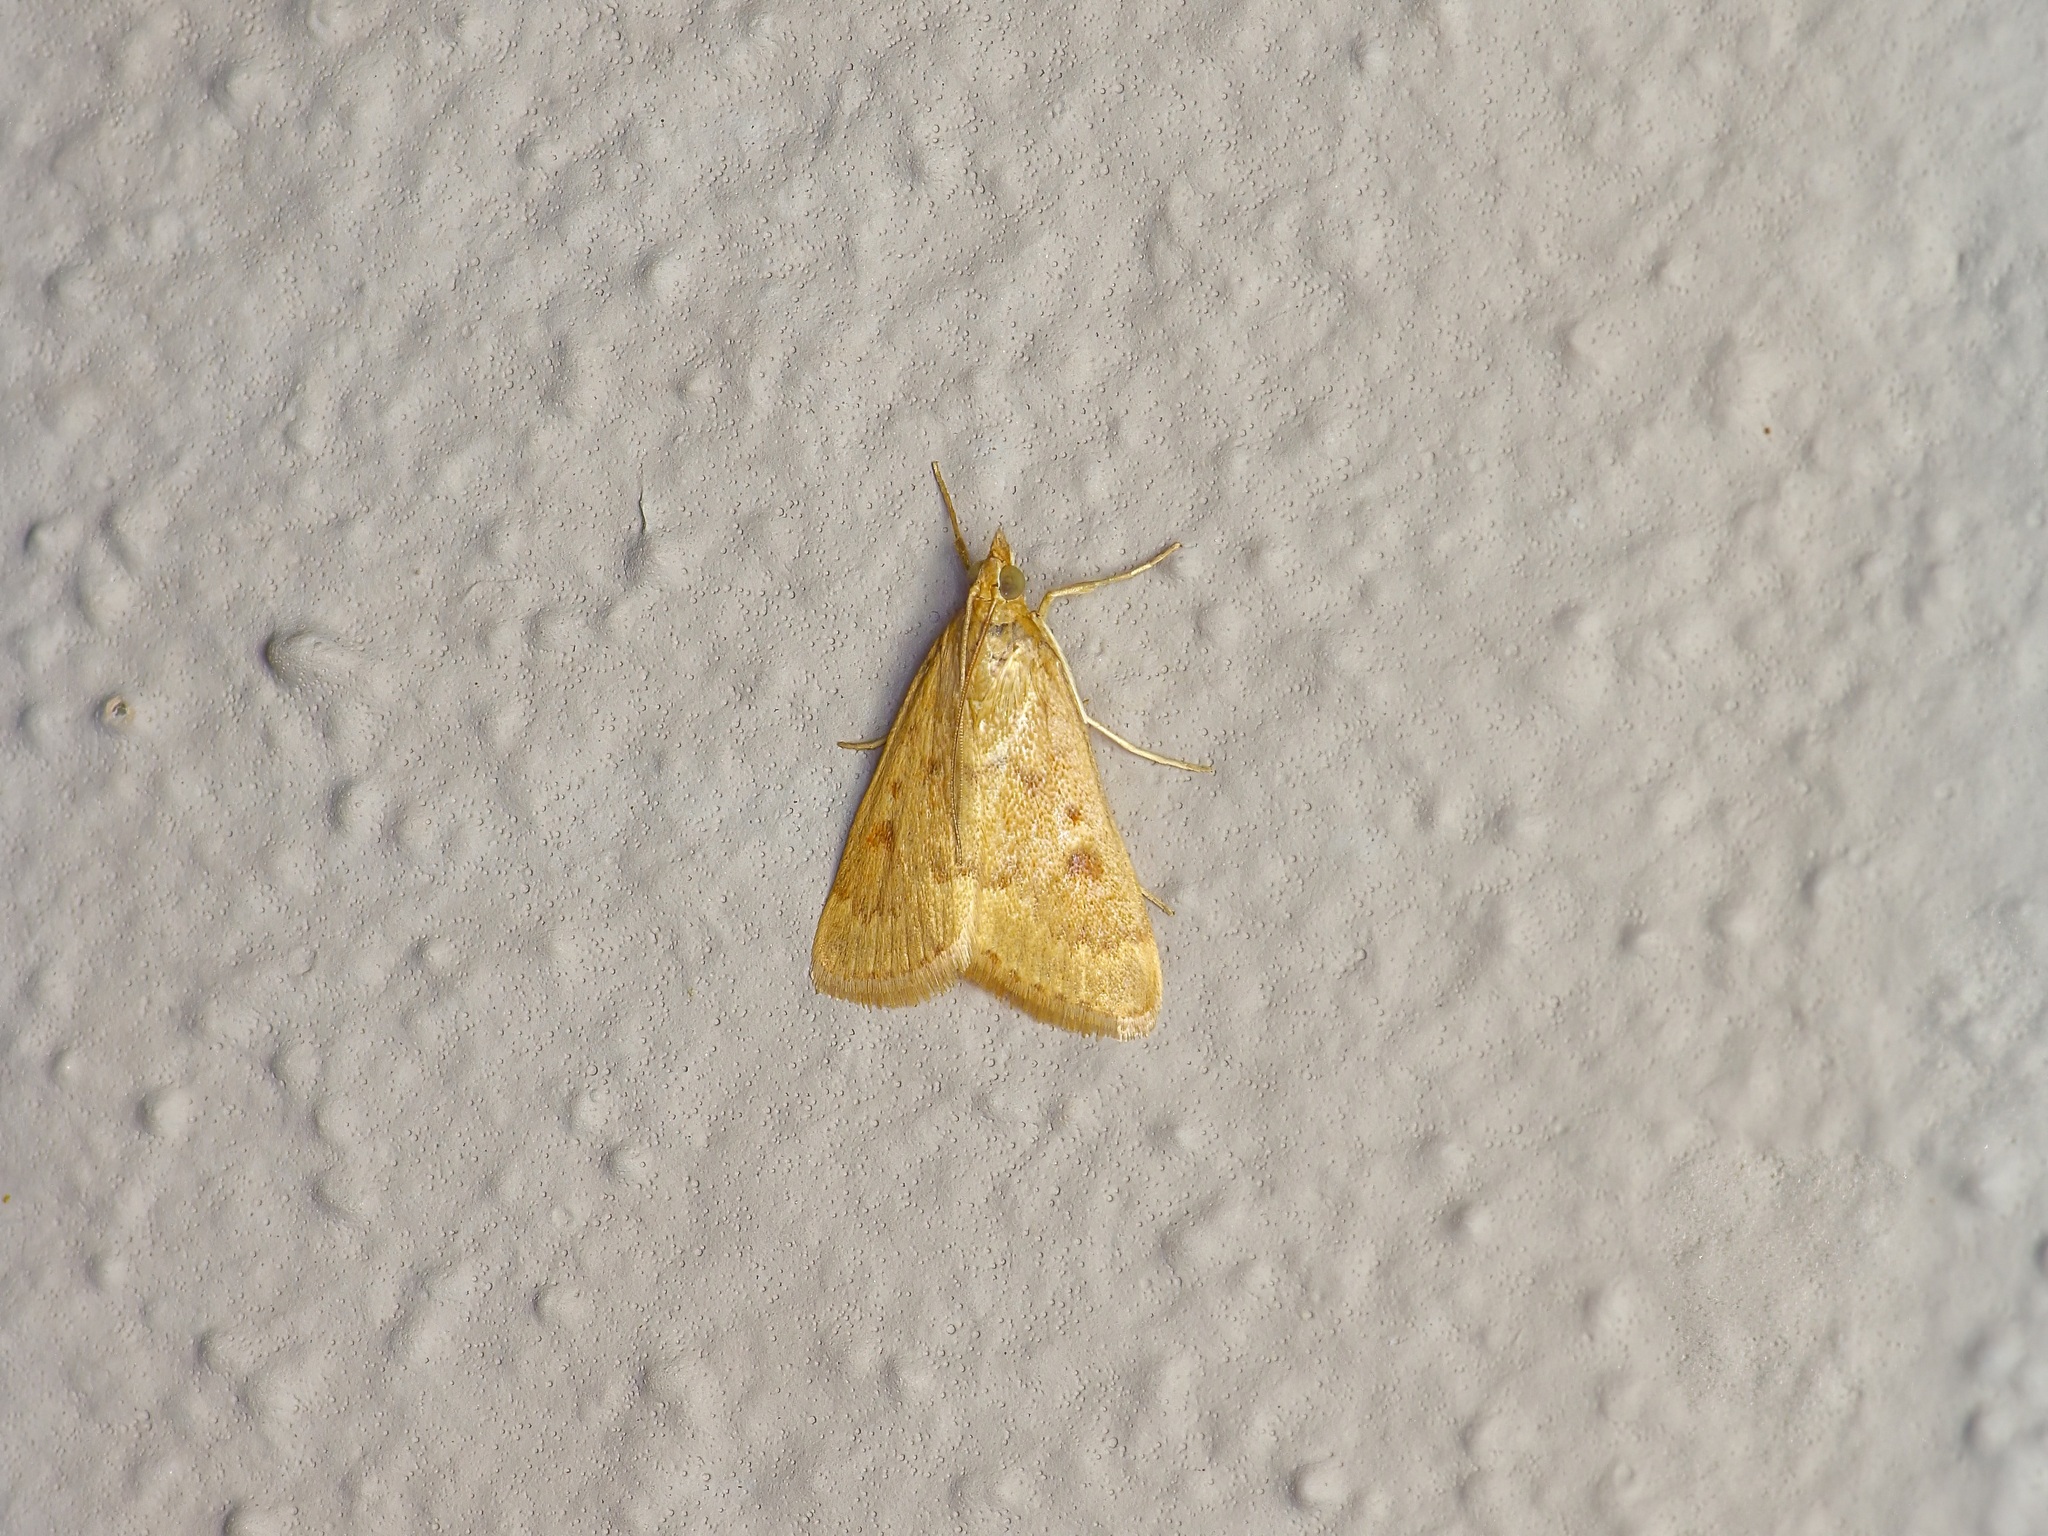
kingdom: Animalia
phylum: Arthropoda
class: Insecta
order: Lepidoptera
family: Crambidae
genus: Achyra
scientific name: Achyra rantalis
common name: Garden webworm
